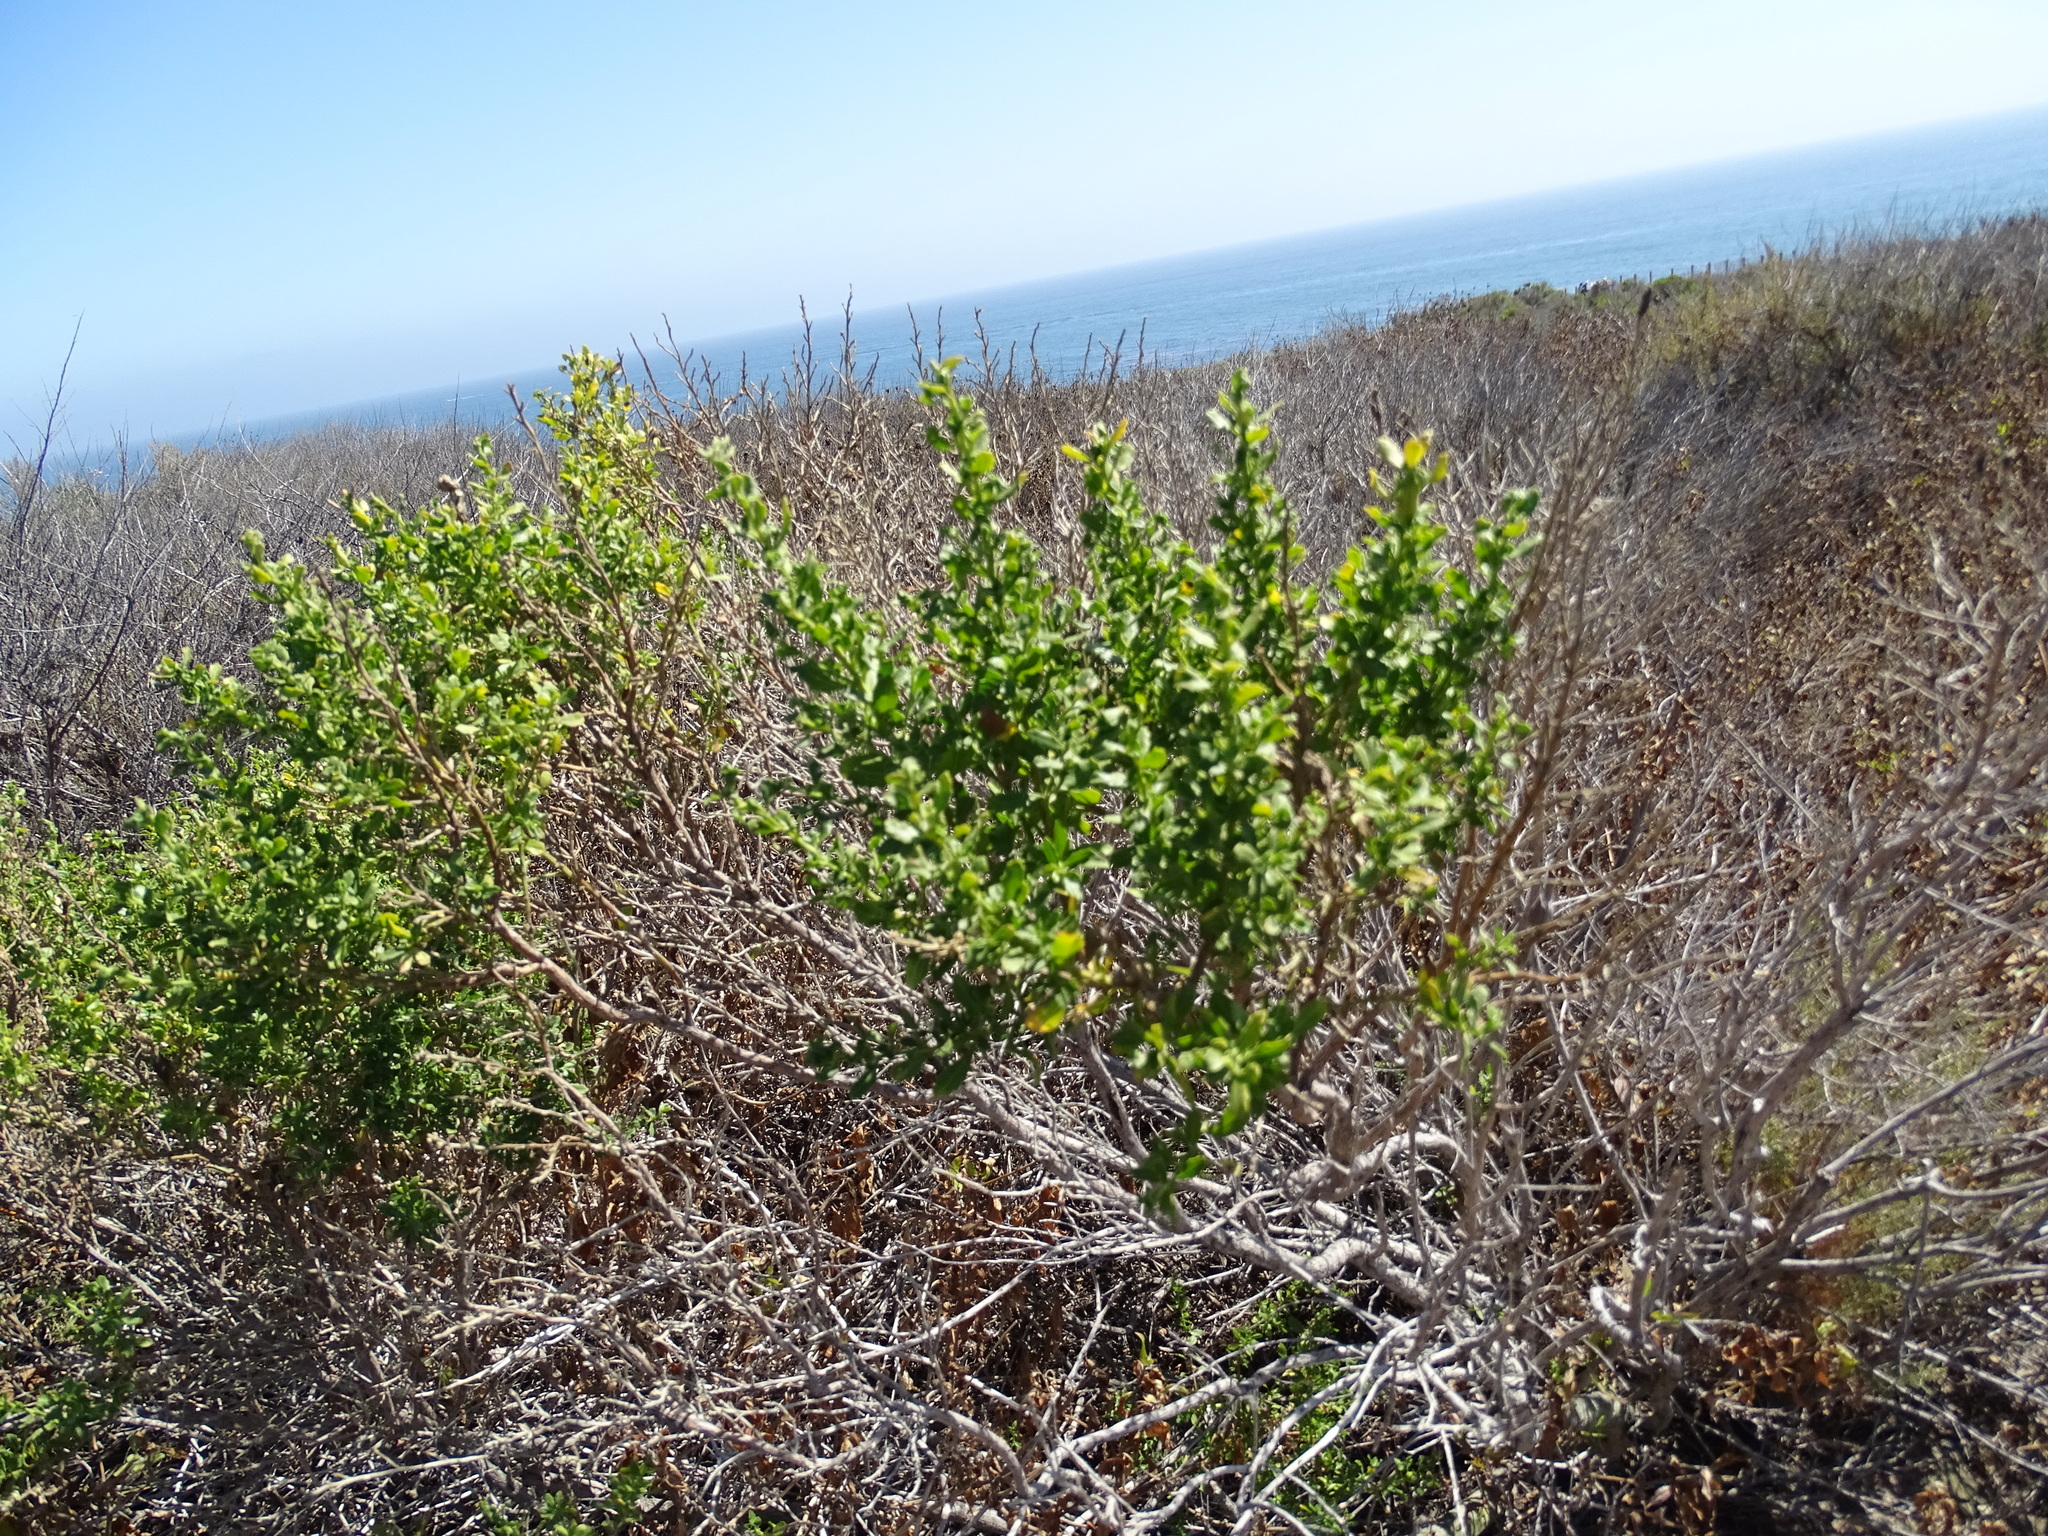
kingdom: Plantae
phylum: Tracheophyta
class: Magnoliopsida
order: Asterales
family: Asteraceae
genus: Baccharis
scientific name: Baccharis pilularis
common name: Coyotebrush
